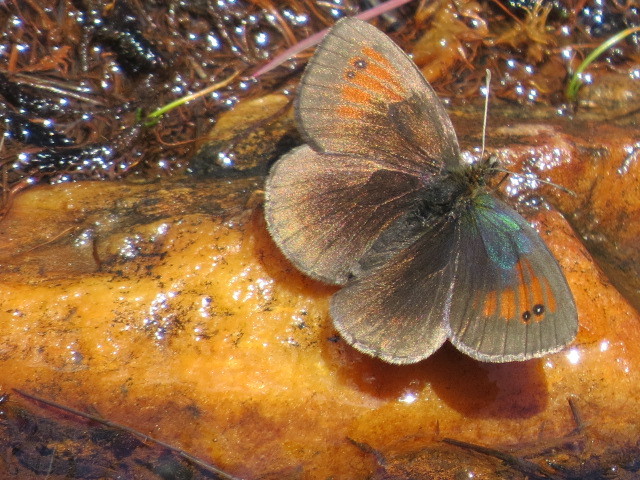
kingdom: Animalia
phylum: Arthropoda
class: Insecta
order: Lepidoptera
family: Nymphalidae
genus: Erebia
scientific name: Erebia tyndarus
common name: Swiss brassy ringlet
